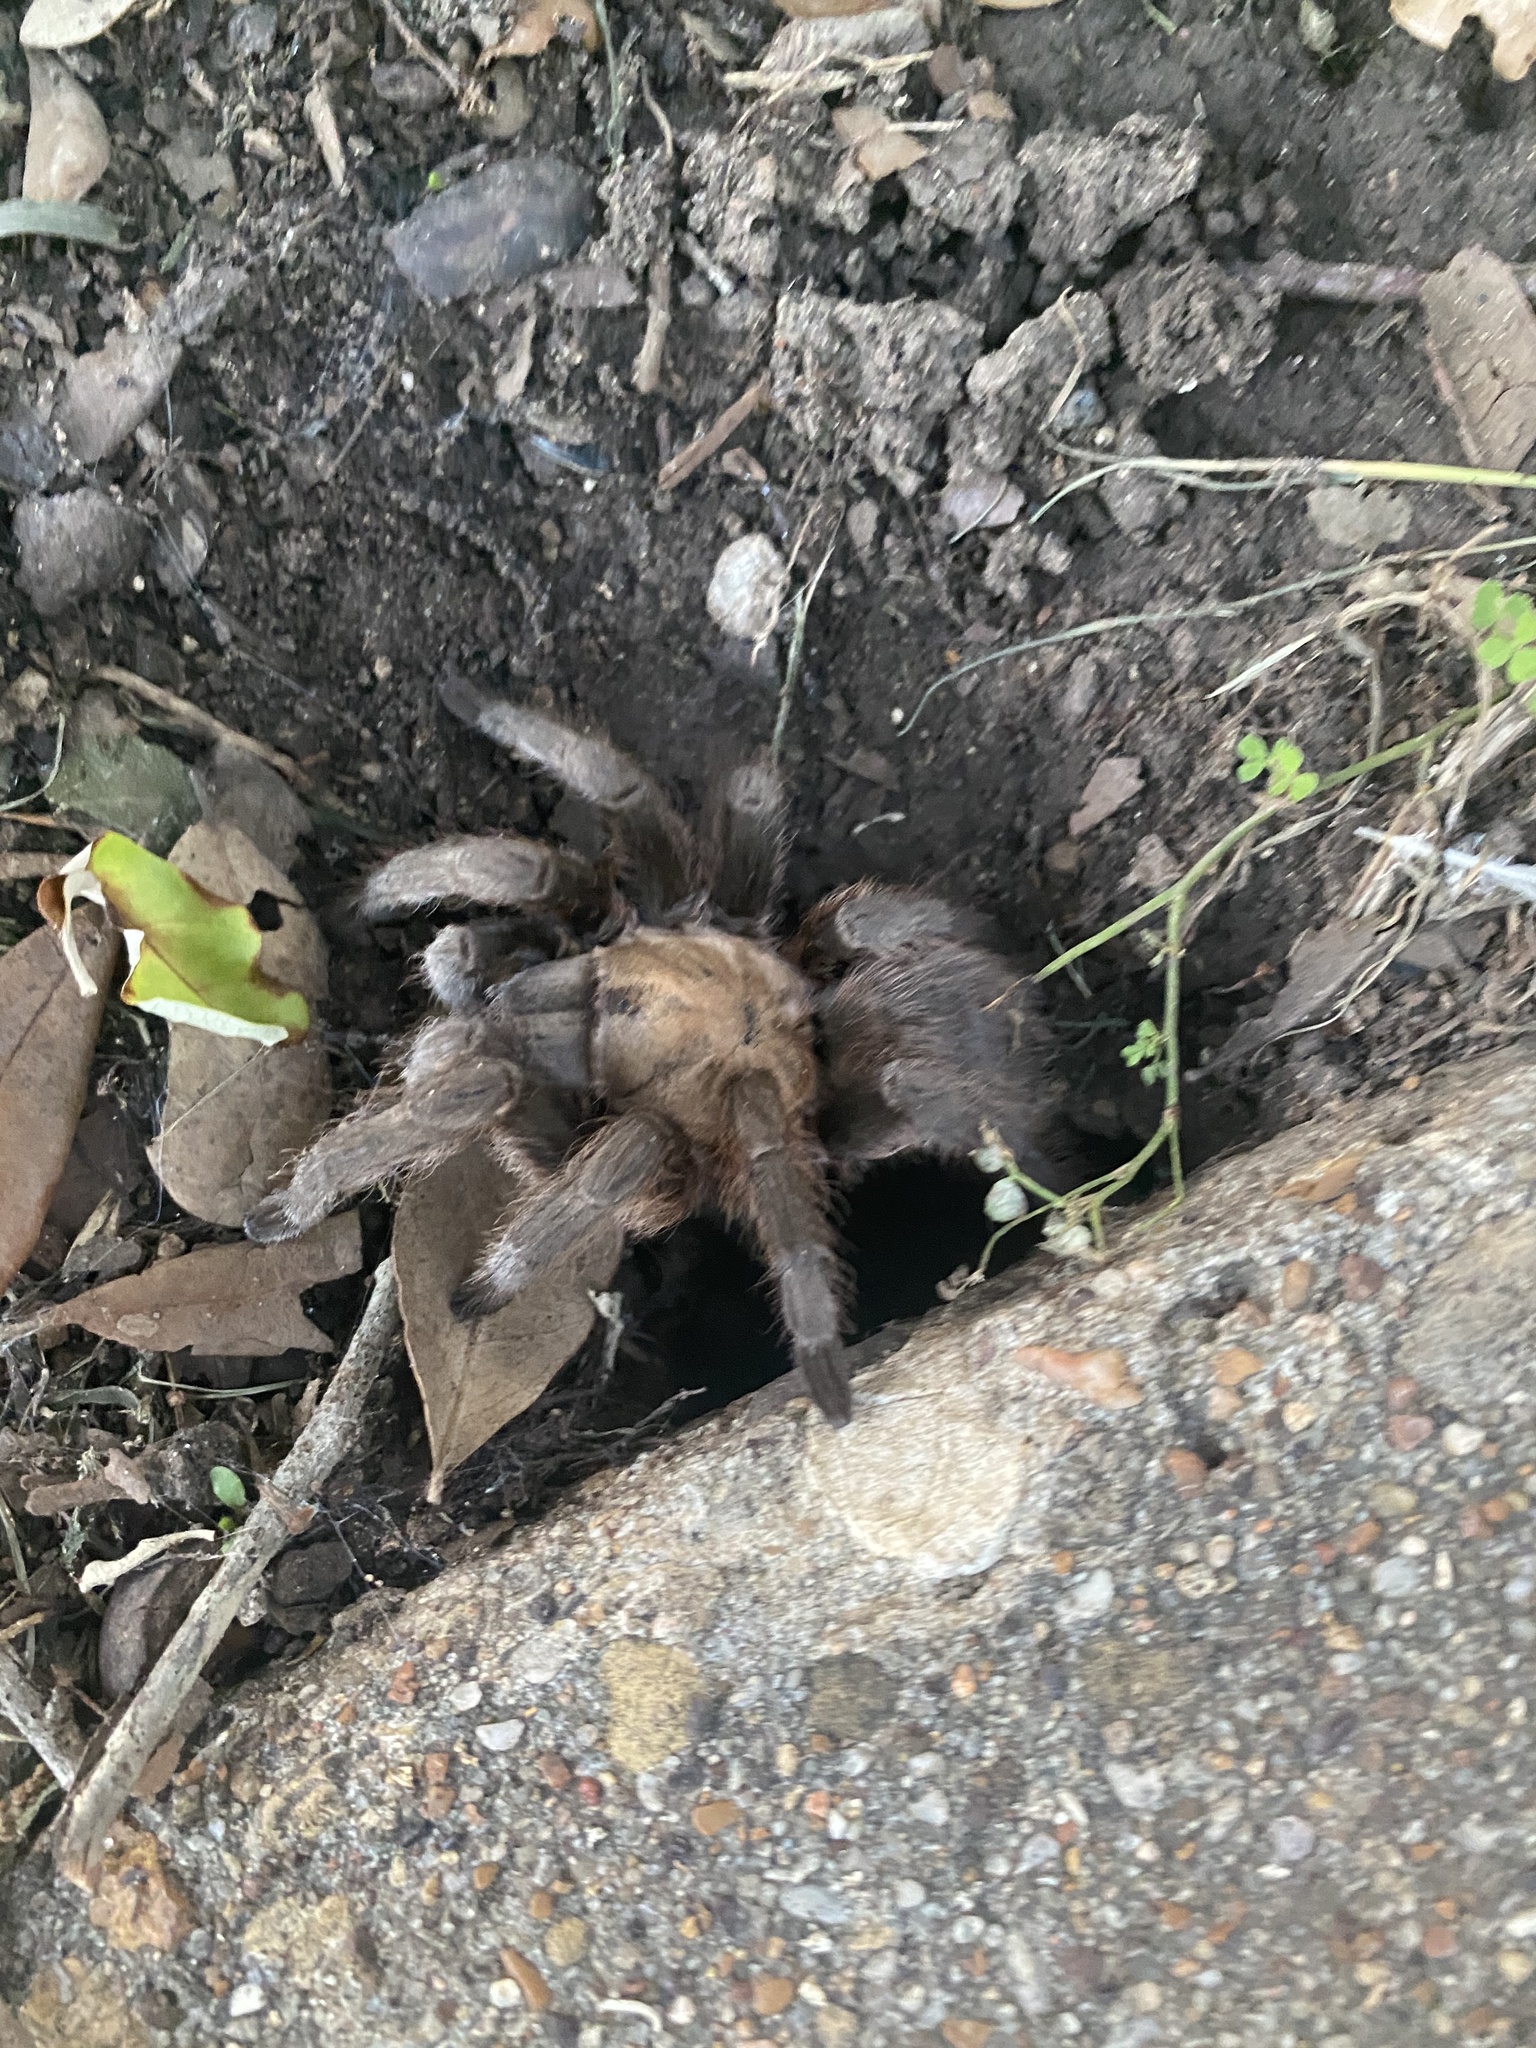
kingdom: Animalia
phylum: Arthropoda
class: Arachnida
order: Araneae
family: Theraphosidae
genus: Aphonopelma
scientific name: Aphonopelma hentzi
